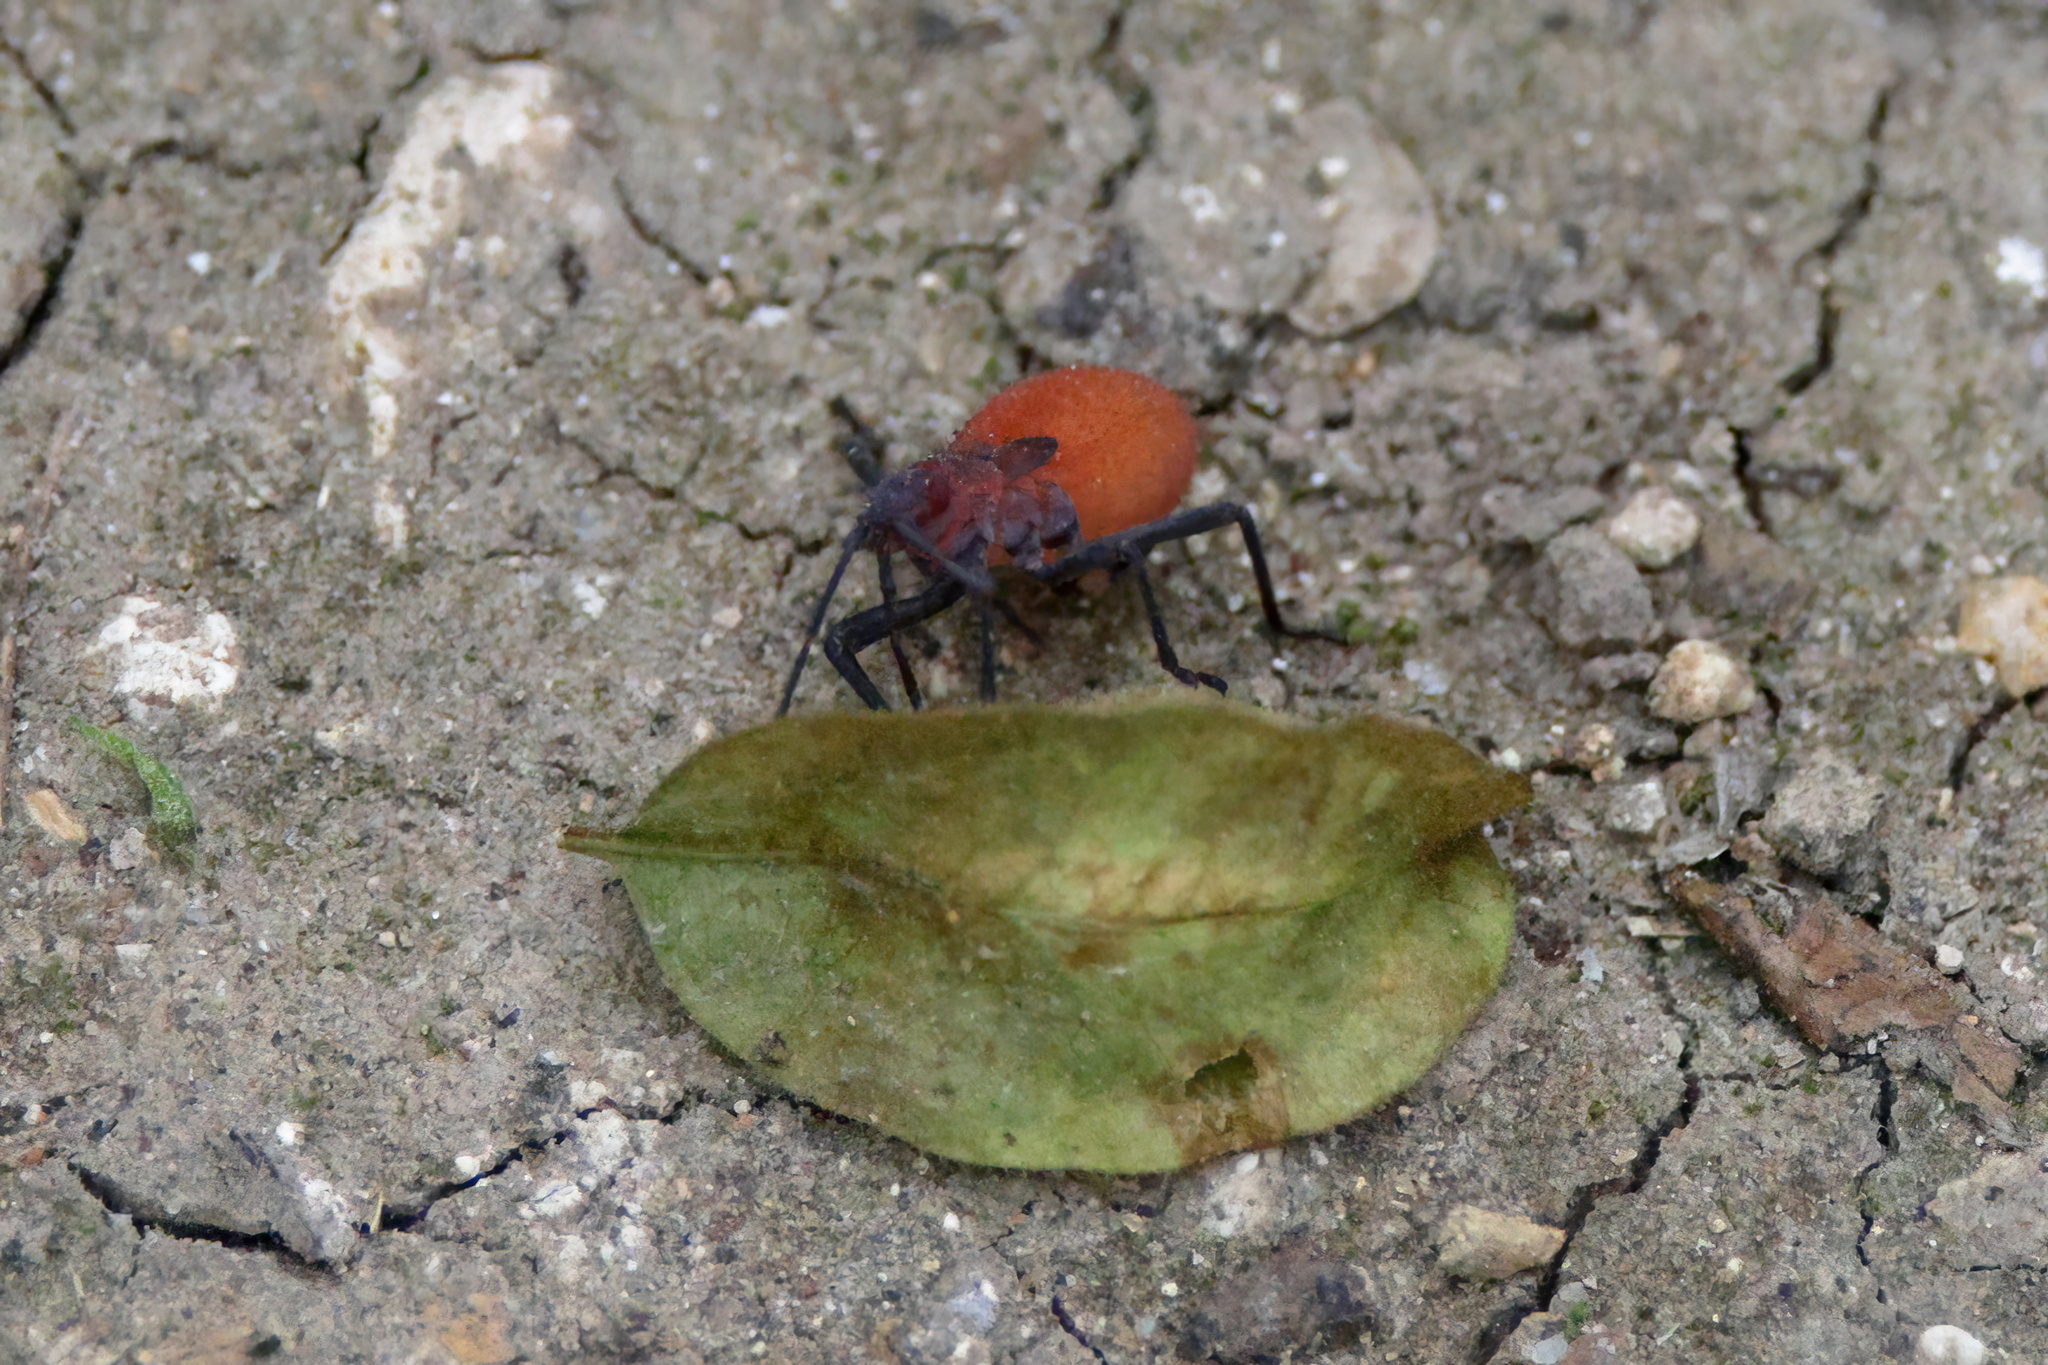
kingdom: Animalia
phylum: Arthropoda
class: Insecta
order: Hemiptera
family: Rhopalidae
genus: Jadera
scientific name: Jadera hinnulea
